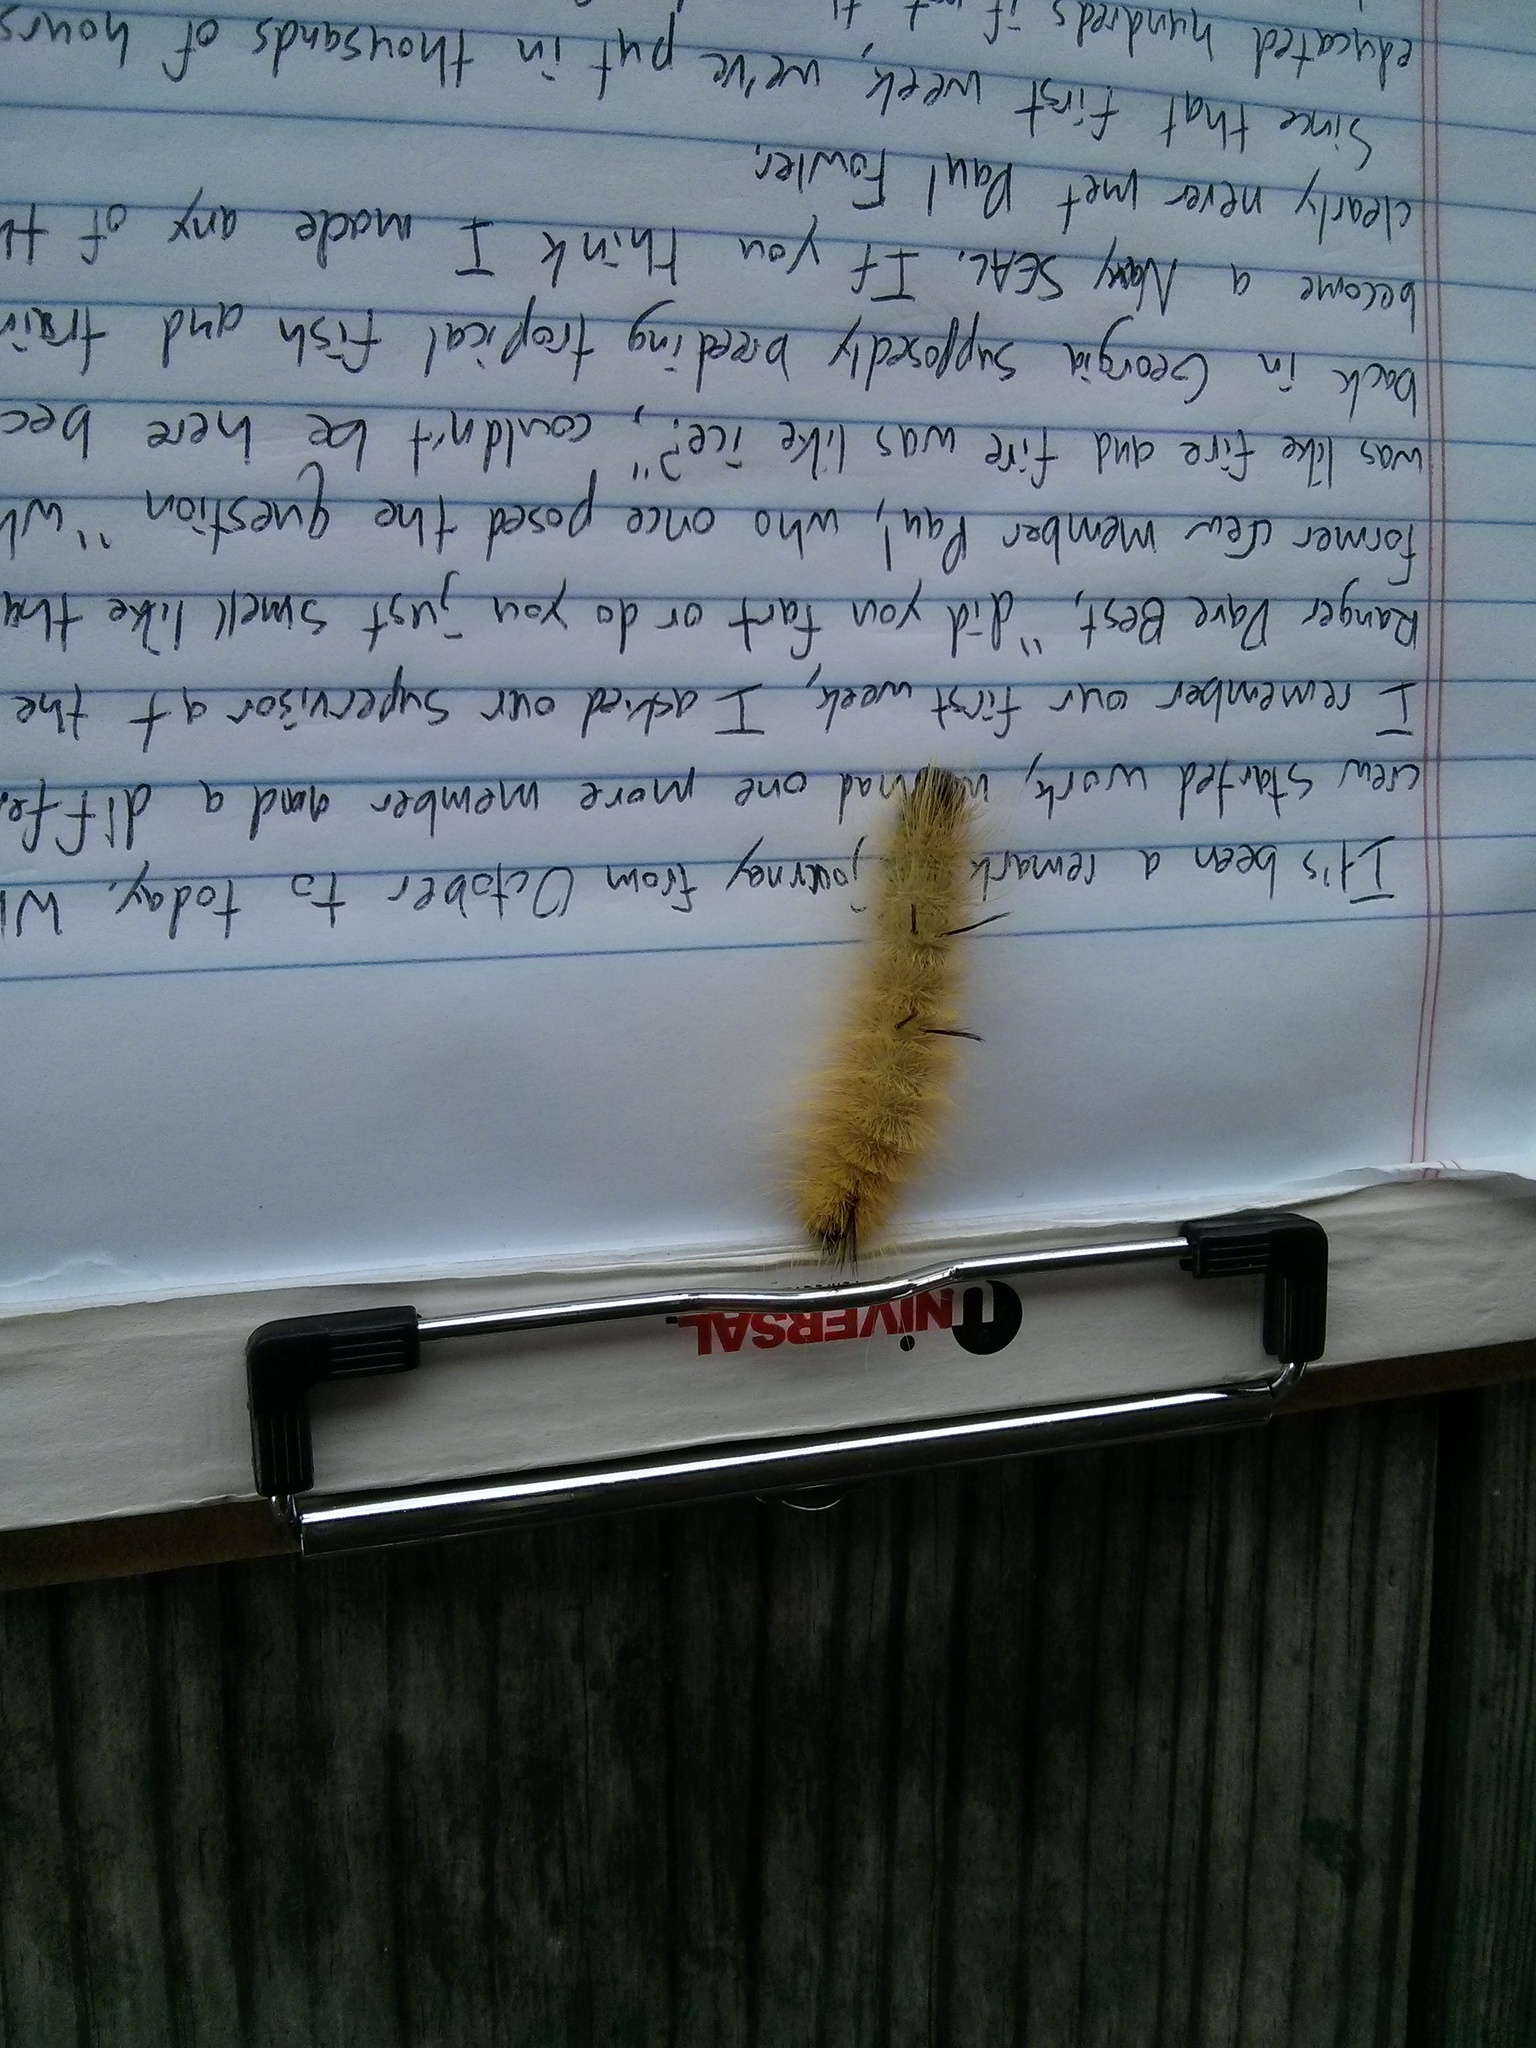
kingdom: Animalia
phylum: Arthropoda
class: Insecta
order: Lepidoptera
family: Noctuidae
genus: Acronicta
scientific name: Acronicta americana
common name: American dagger
